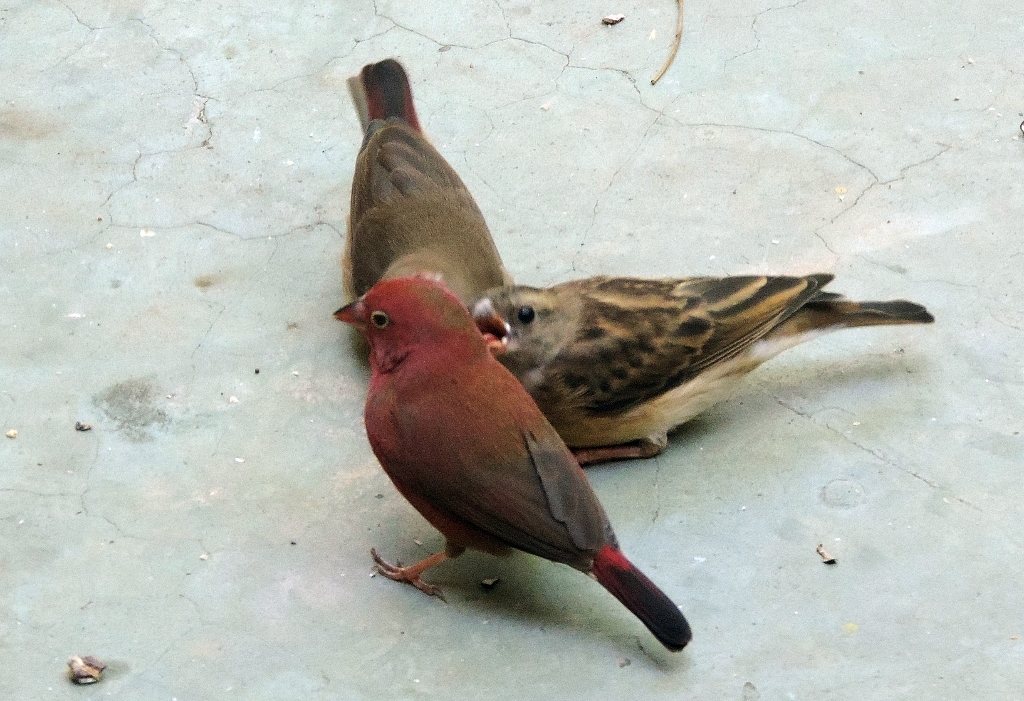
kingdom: Animalia
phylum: Chordata
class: Aves
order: Passeriformes
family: Viduidae
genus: Vidua
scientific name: Vidua chalybeata
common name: Village indigobird
